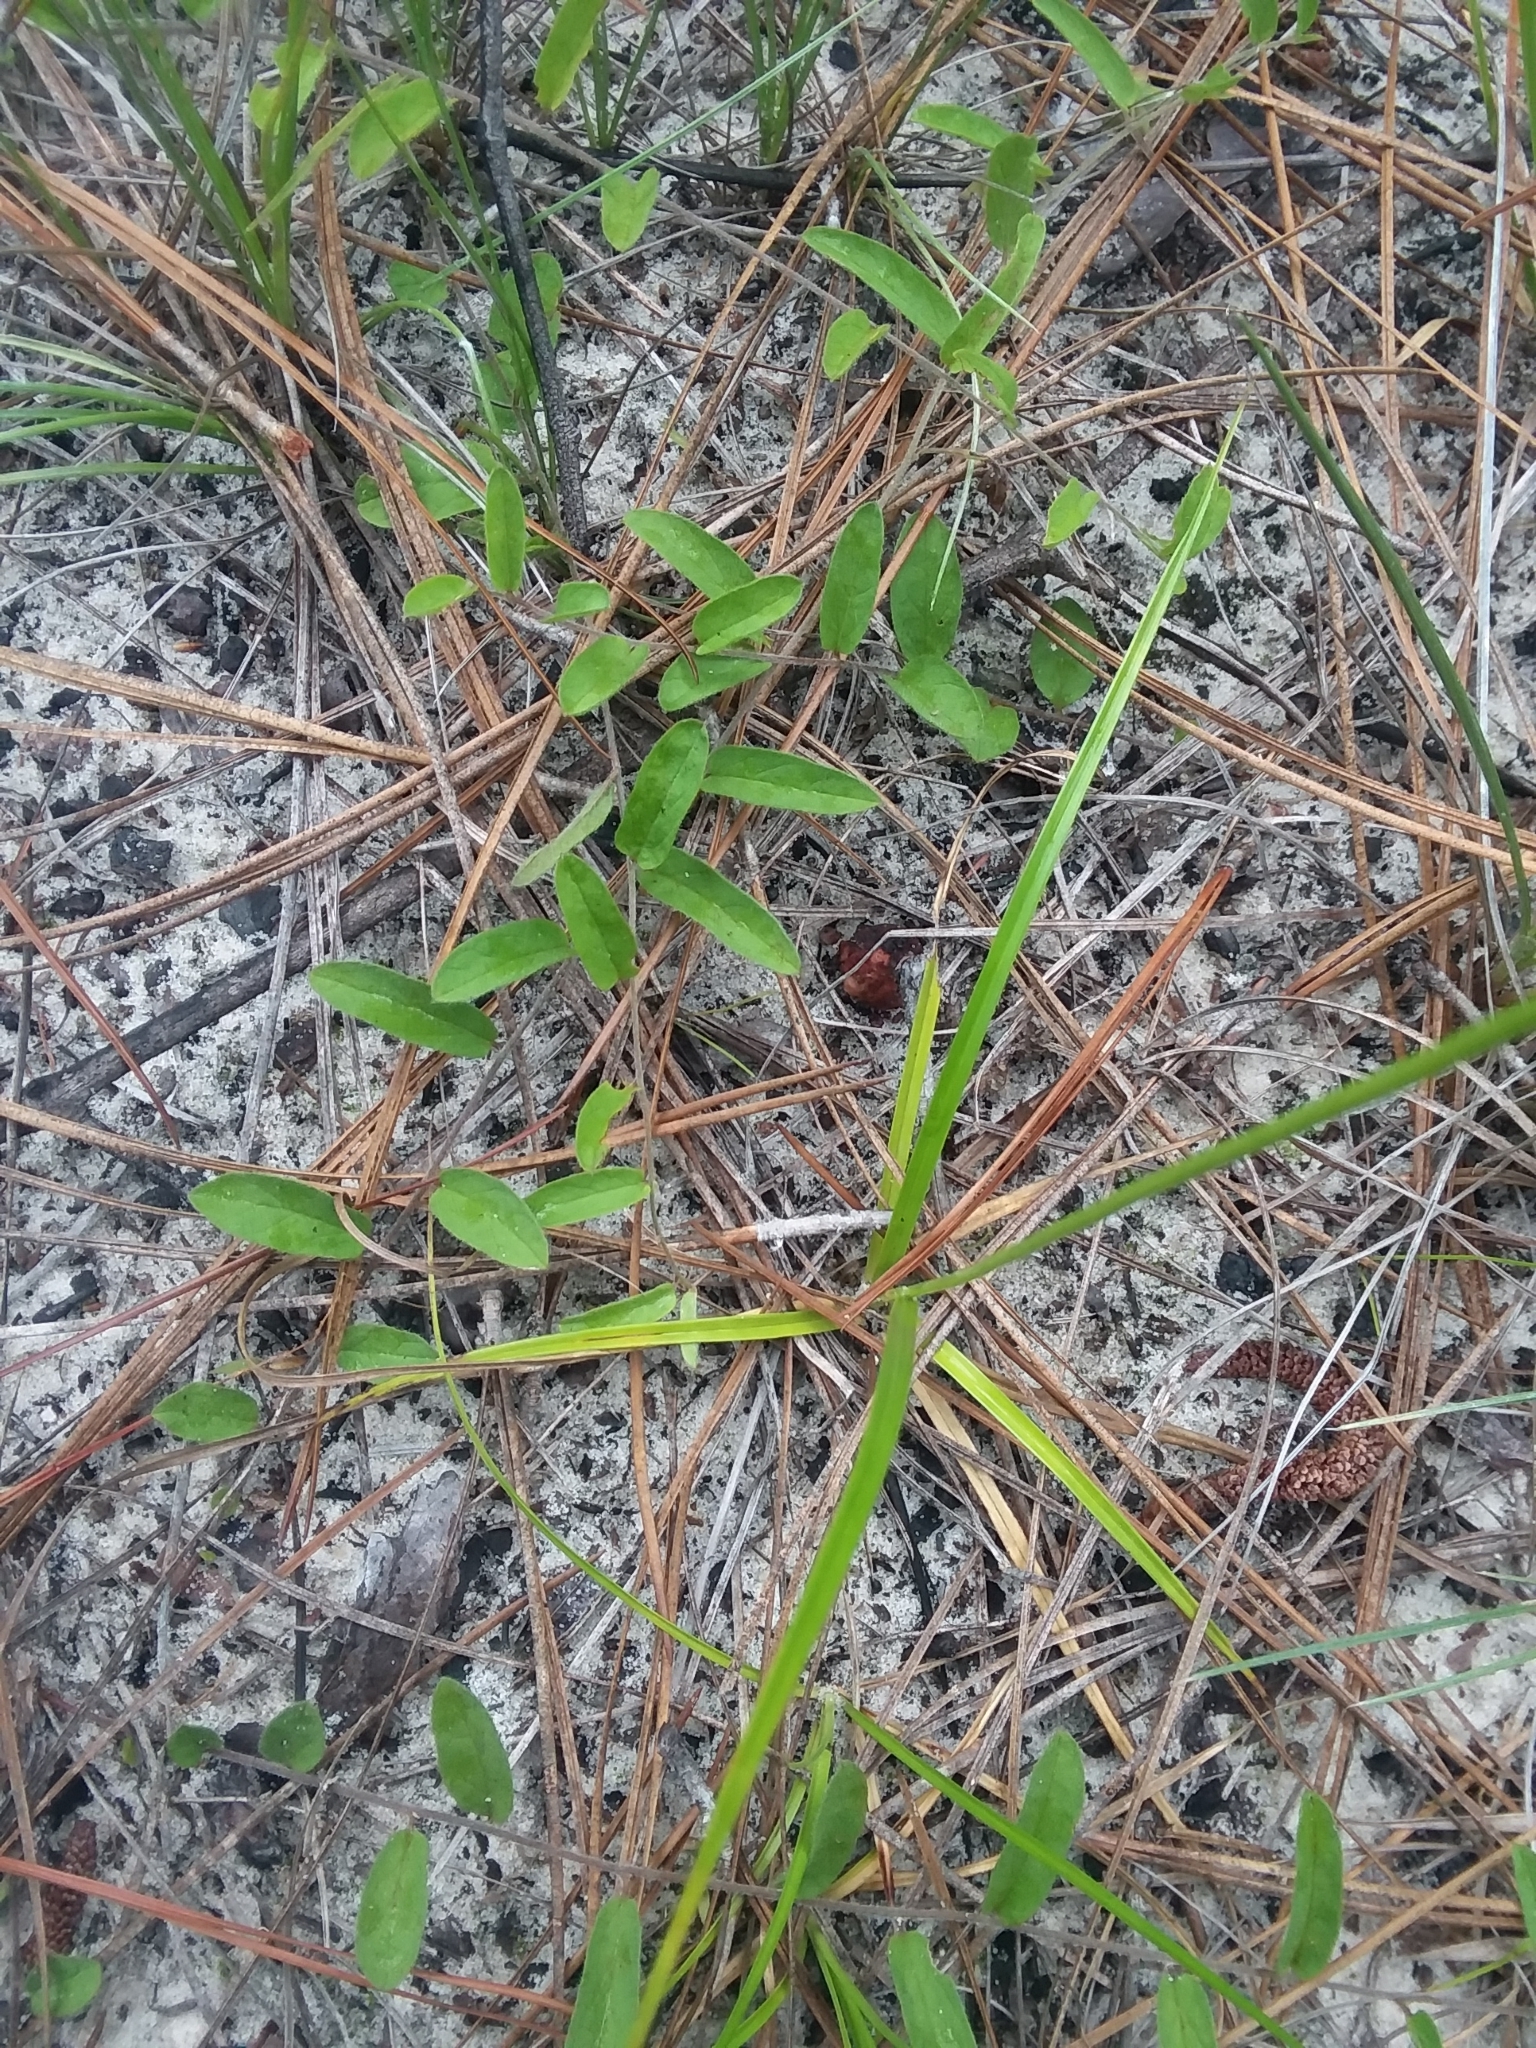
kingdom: Plantae
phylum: Tracheophyta
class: Liliopsida
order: Poales
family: Cyperaceae
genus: Rhynchospora
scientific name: Rhynchospora grayi
